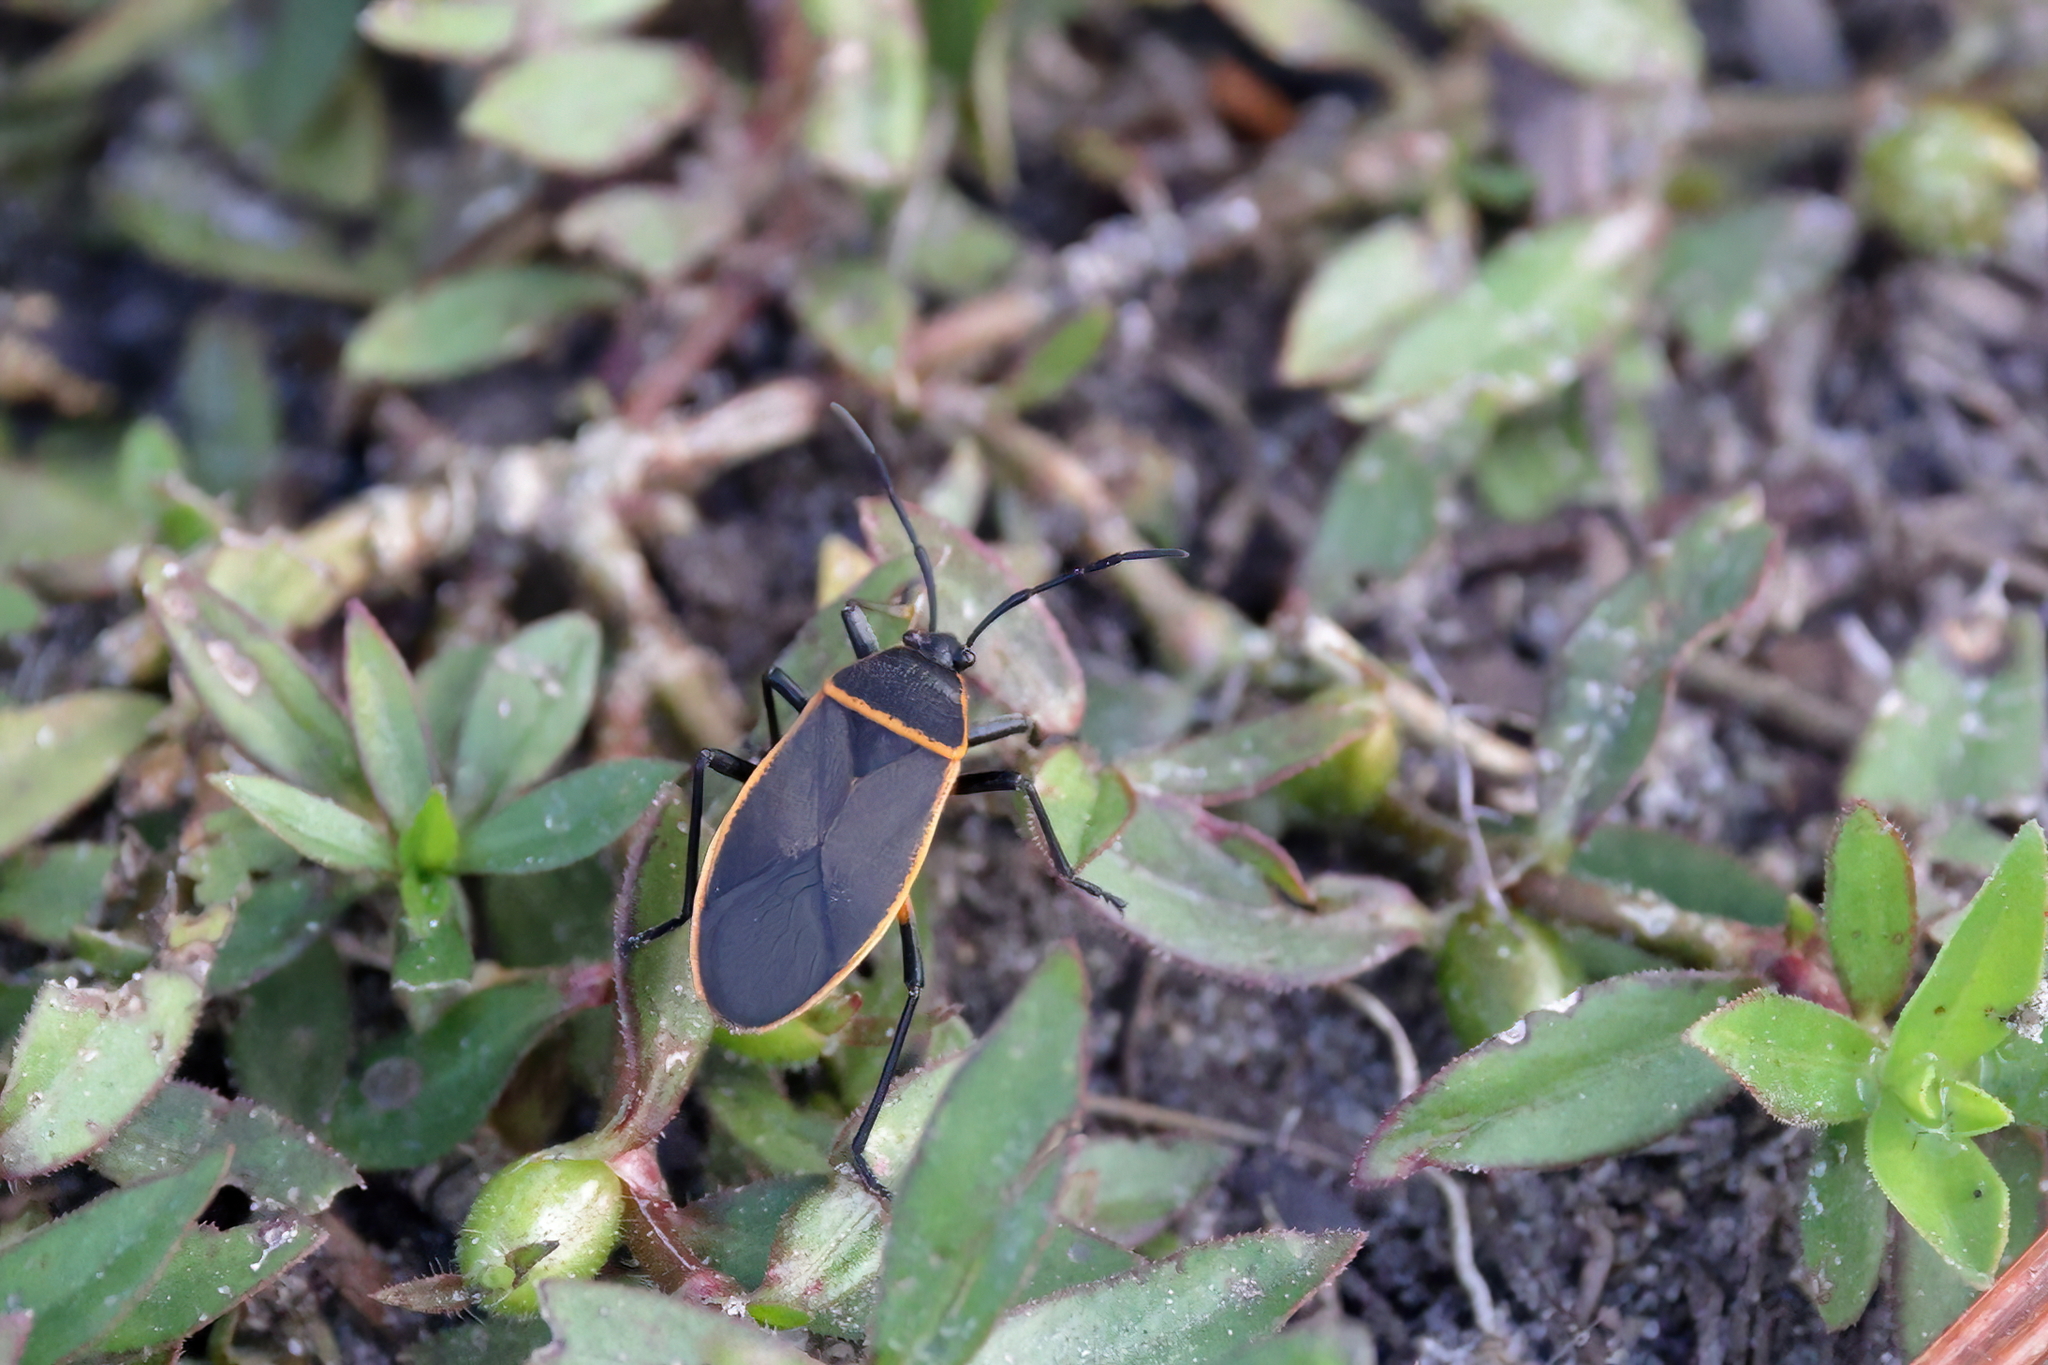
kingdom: Animalia
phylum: Arthropoda
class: Insecta
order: Hemiptera
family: Largidae
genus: Largus
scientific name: Largus succinctus
